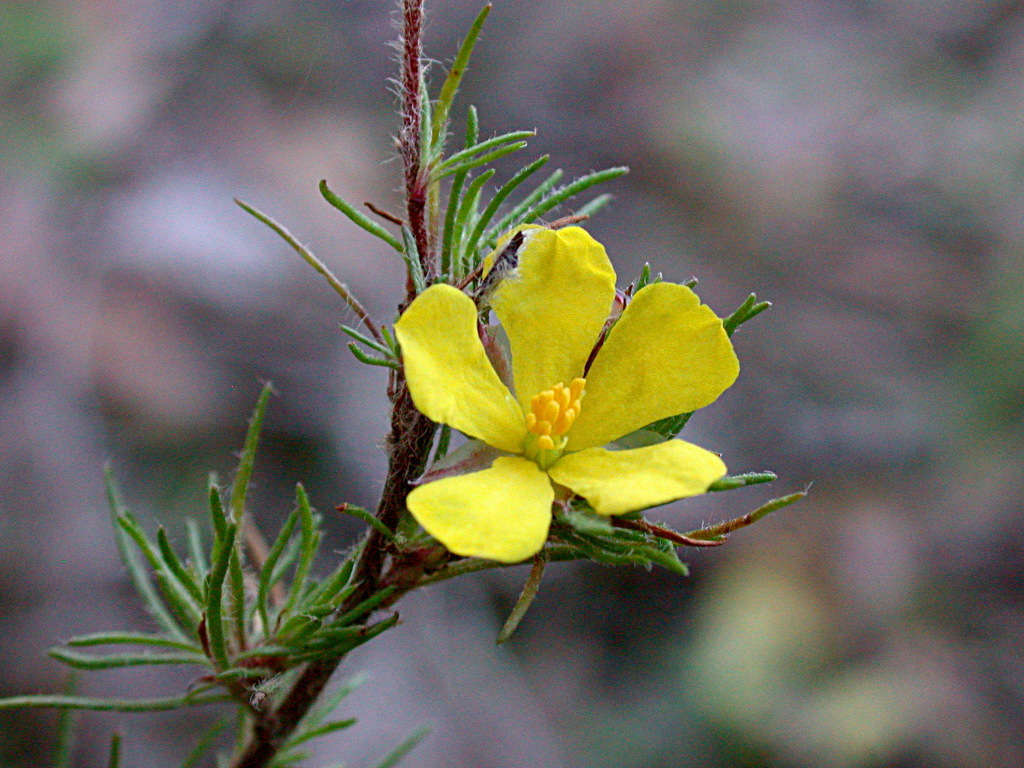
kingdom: Plantae
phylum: Tracheophyta
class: Magnoliopsida
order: Dilleniales
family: Dilleniaceae
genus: Hibbertia
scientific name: Hibbertia prostrata
